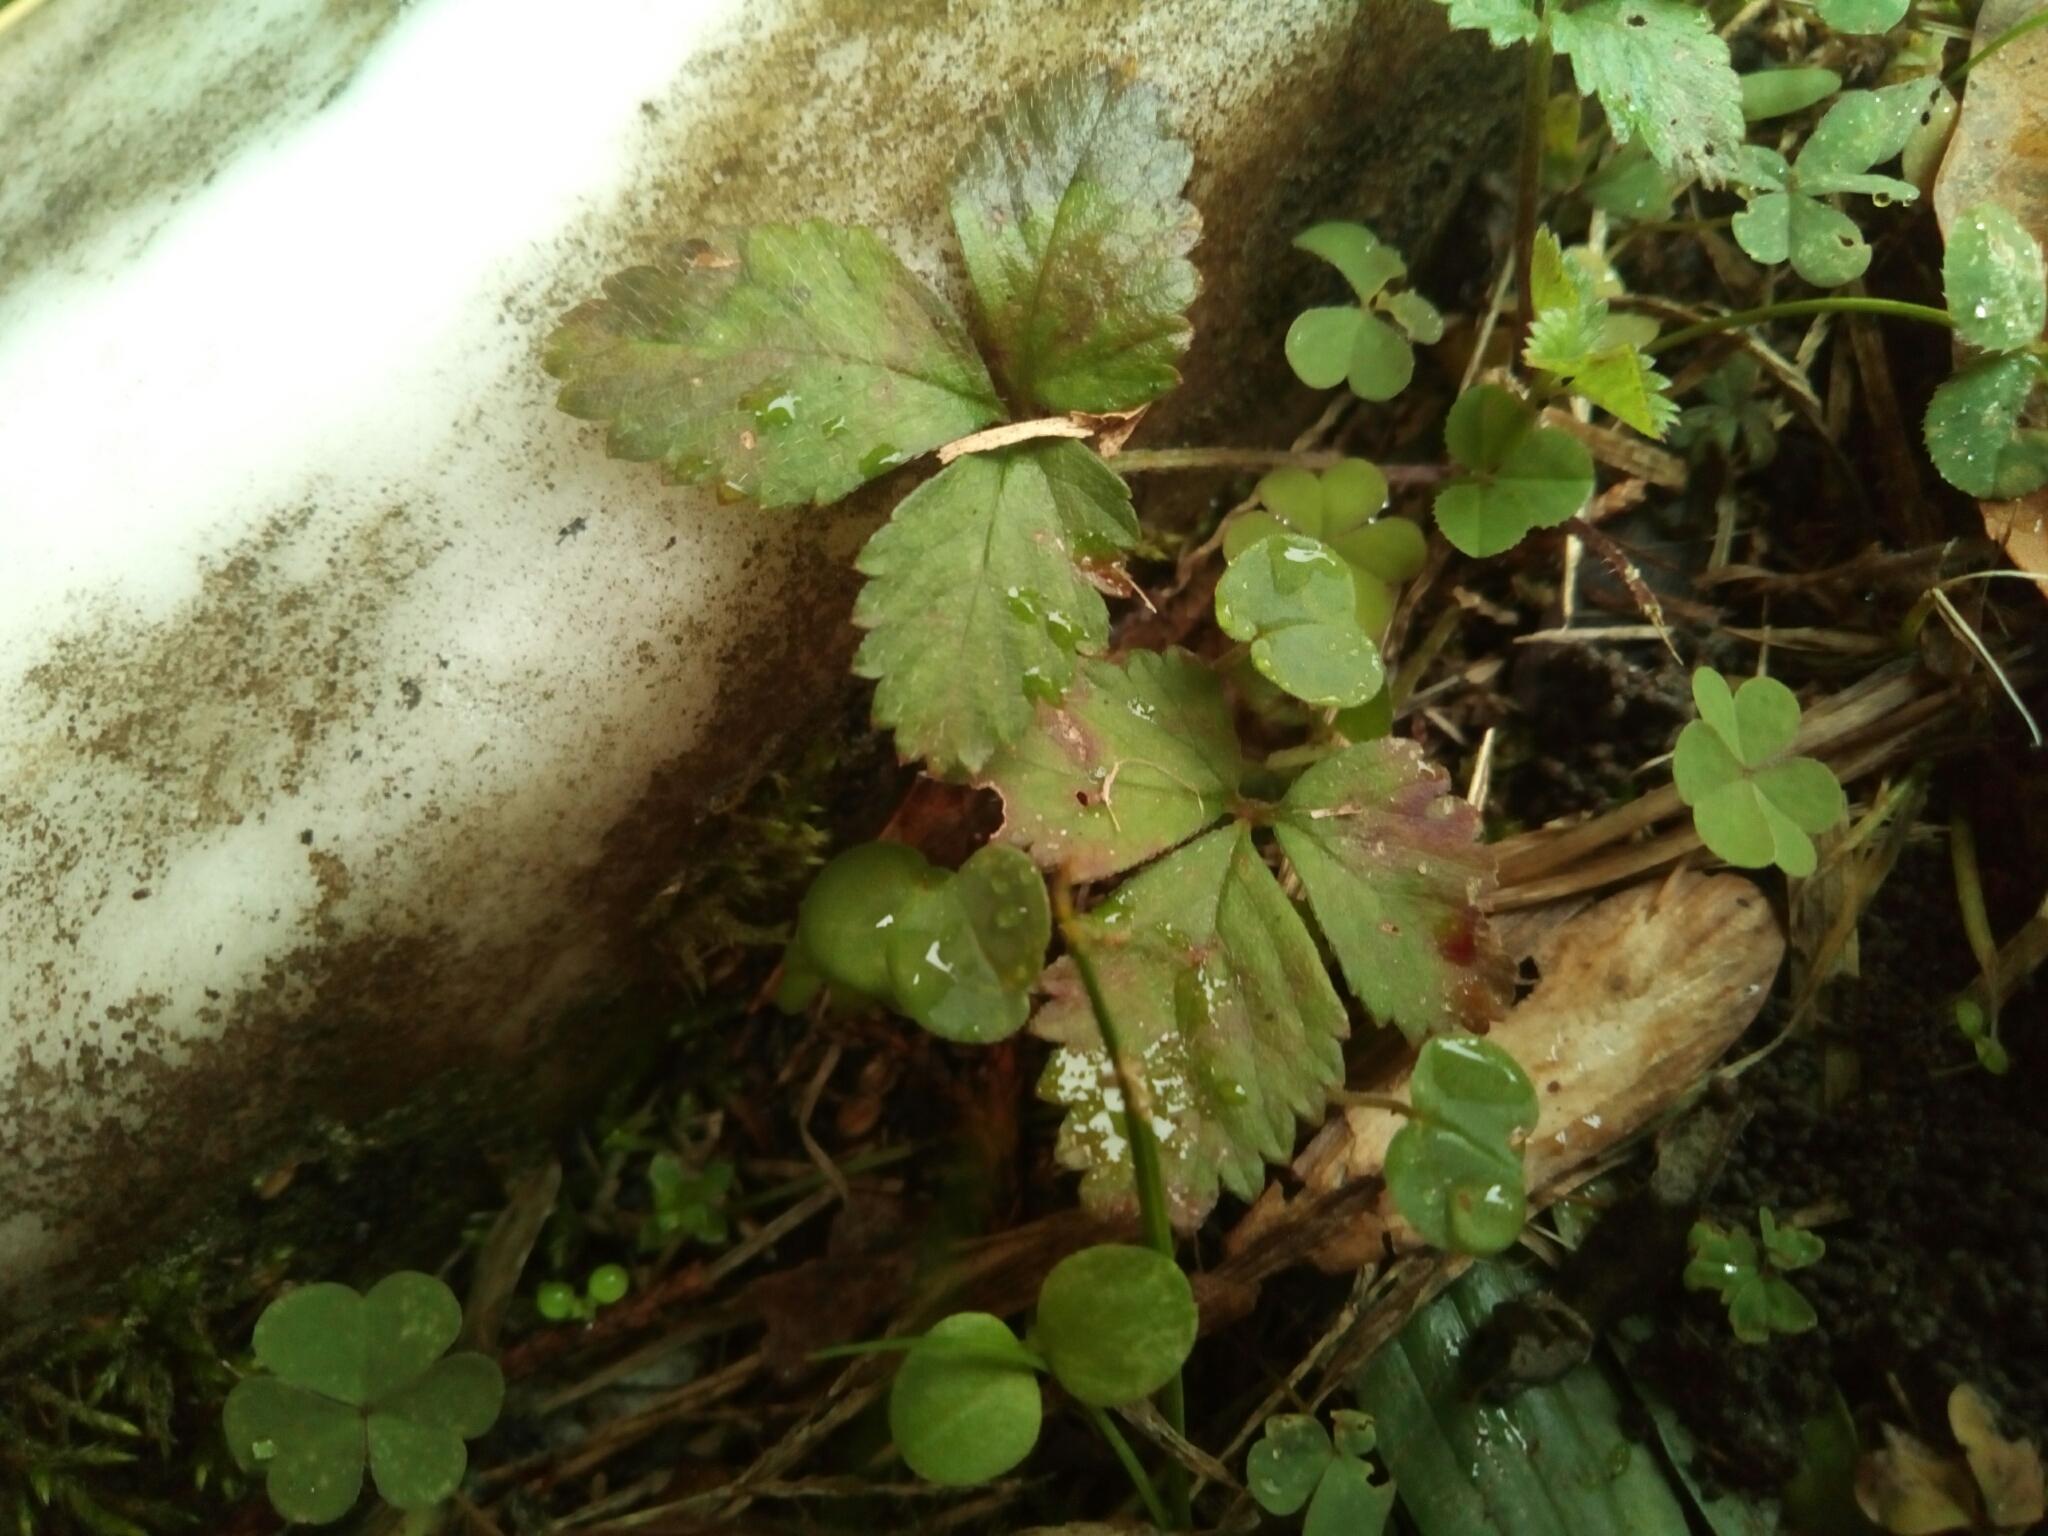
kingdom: Plantae
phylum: Tracheophyta
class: Magnoliopsida
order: Rosales
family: Rosaceae
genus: Potentilla
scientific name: Potentilla indica
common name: Yellow-flowered strawberry
